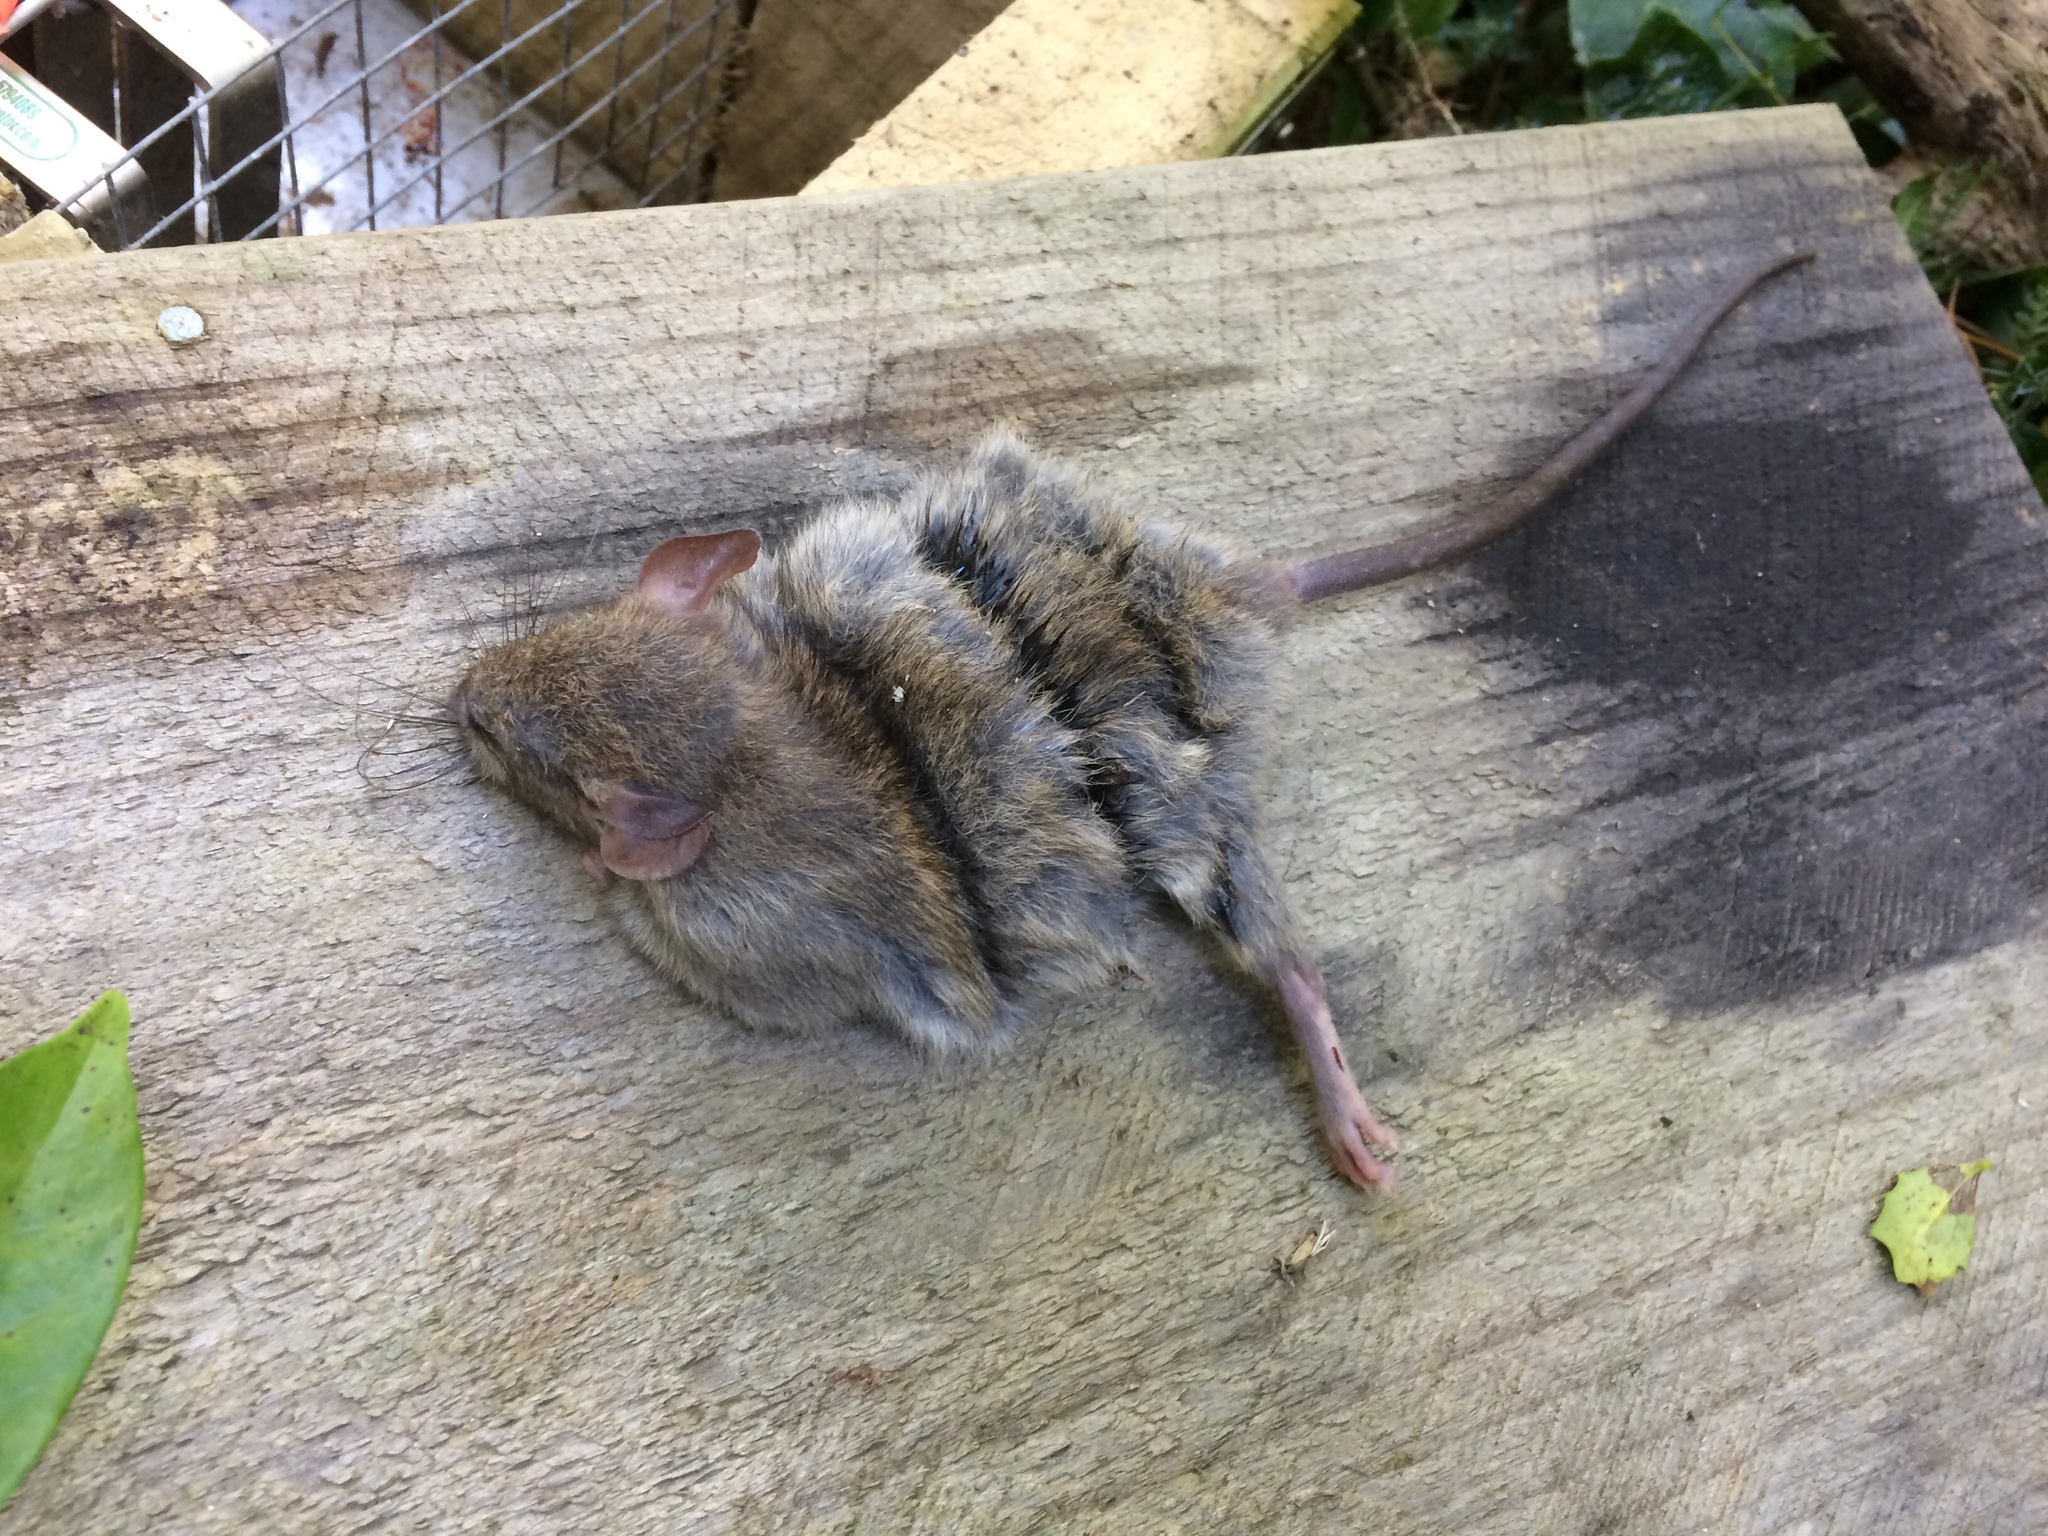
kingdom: Animalia
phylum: Chordata
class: Mammalia
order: Rodentia
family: Muridae
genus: Rattus
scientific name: Rattus rattus
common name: Black rat
